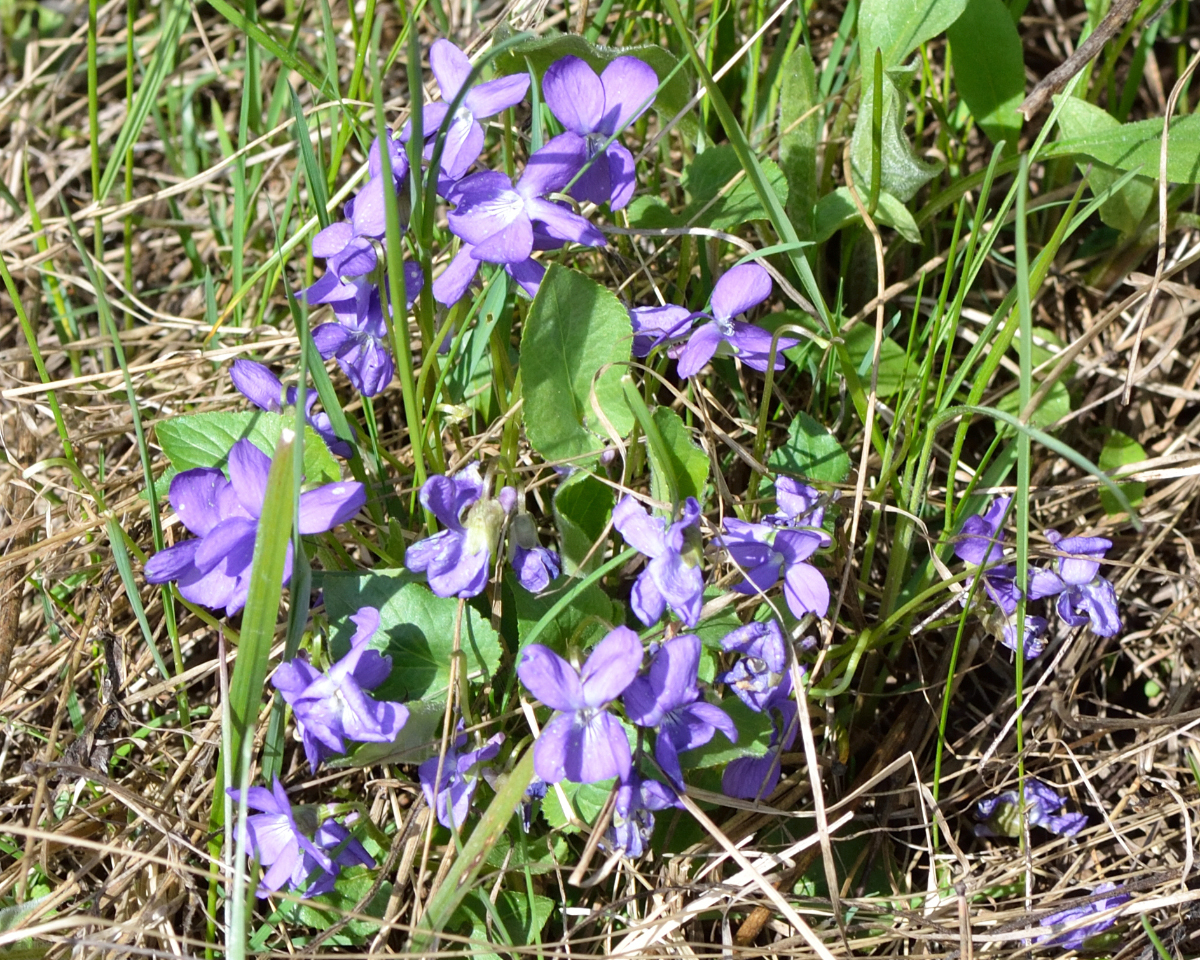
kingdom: Plantae
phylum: Tracheophyta
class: Magnoliopsida
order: Malpighiales
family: Violaceae
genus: Viola
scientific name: Viola hirta
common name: Hairy violet
